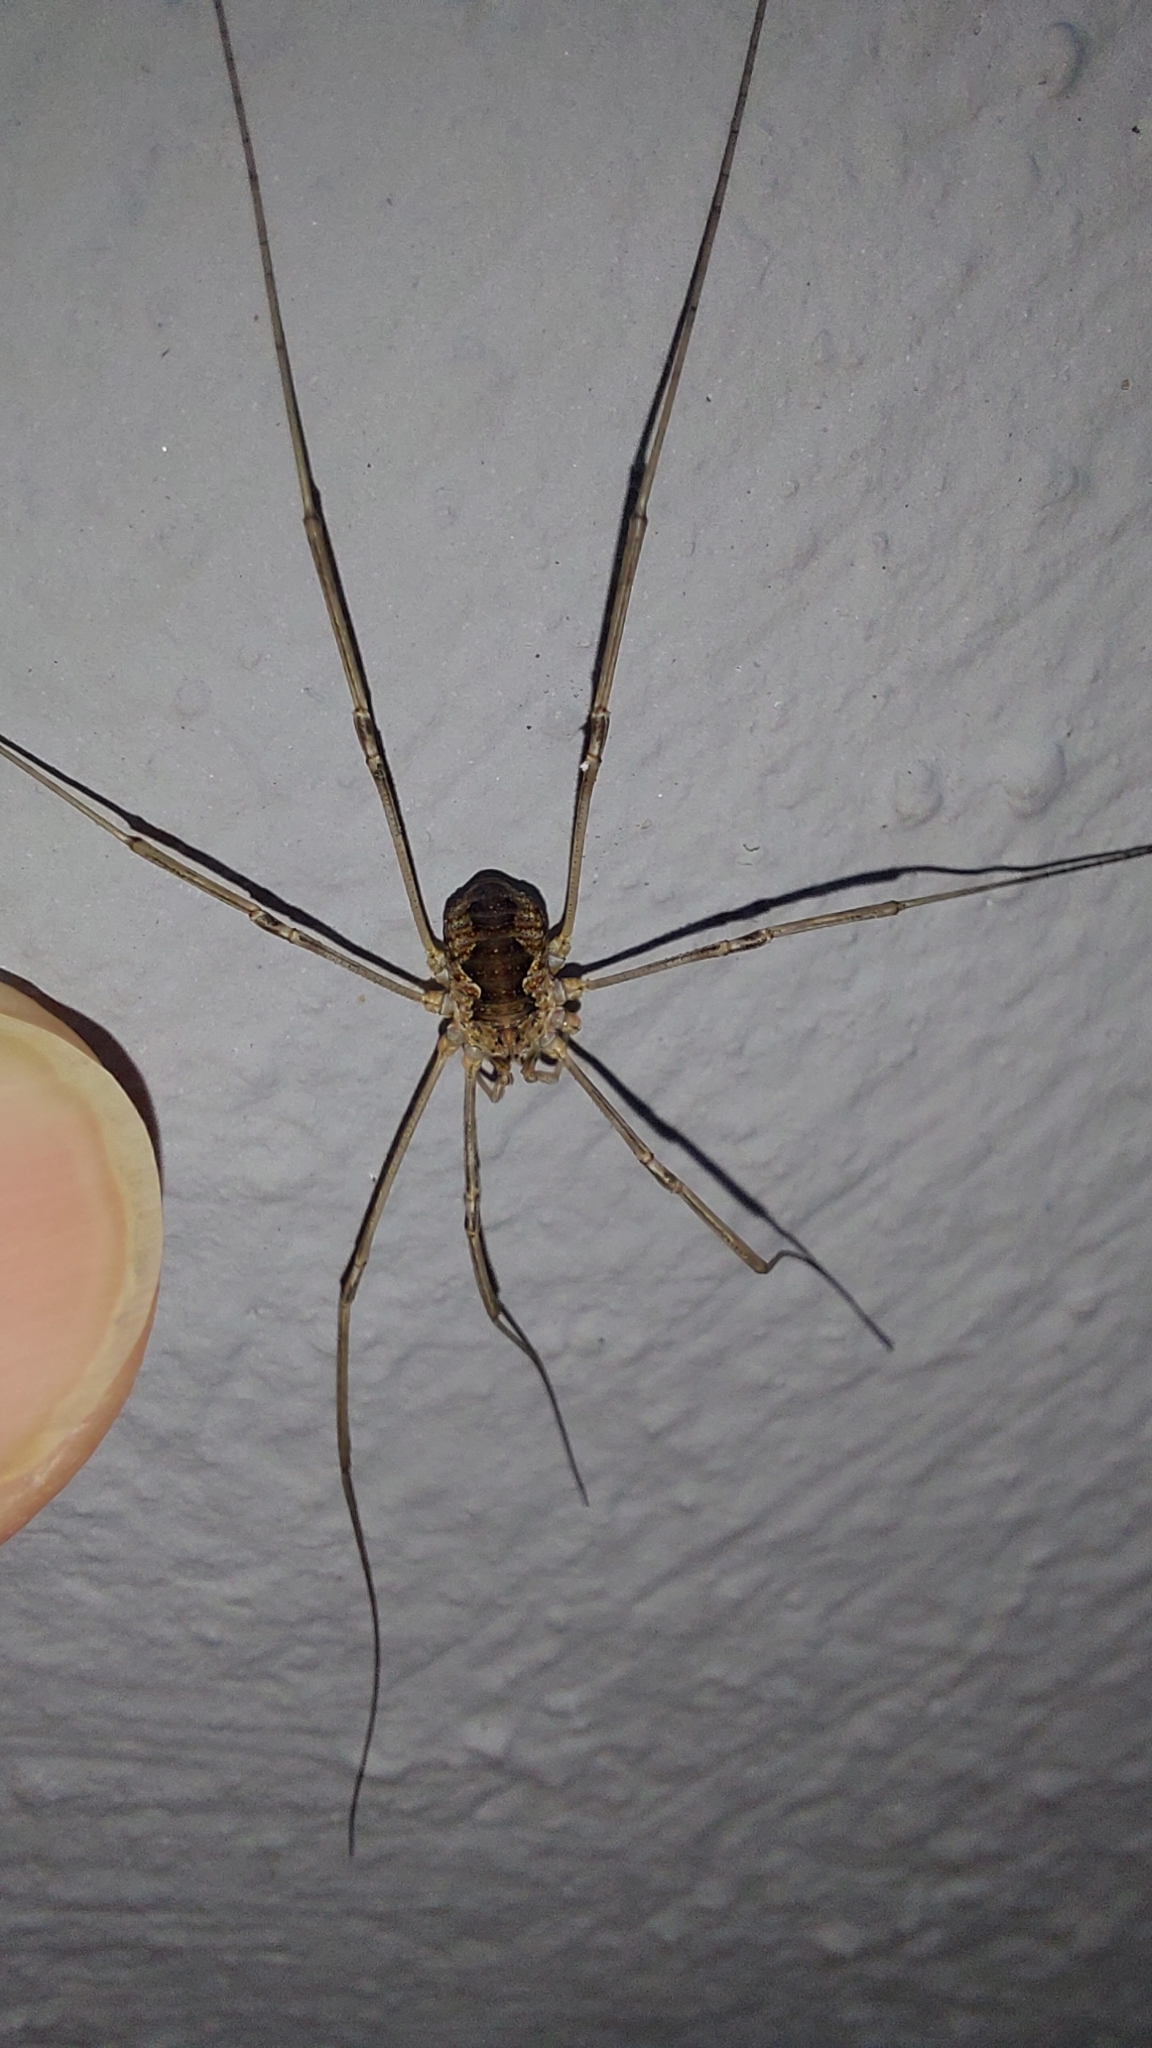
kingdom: Animalia
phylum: Arthropoda
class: Arachnida
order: Opiliones
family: Phalangiidae
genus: Phalangium
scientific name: Phalangium opilio
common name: Daddy longleg
